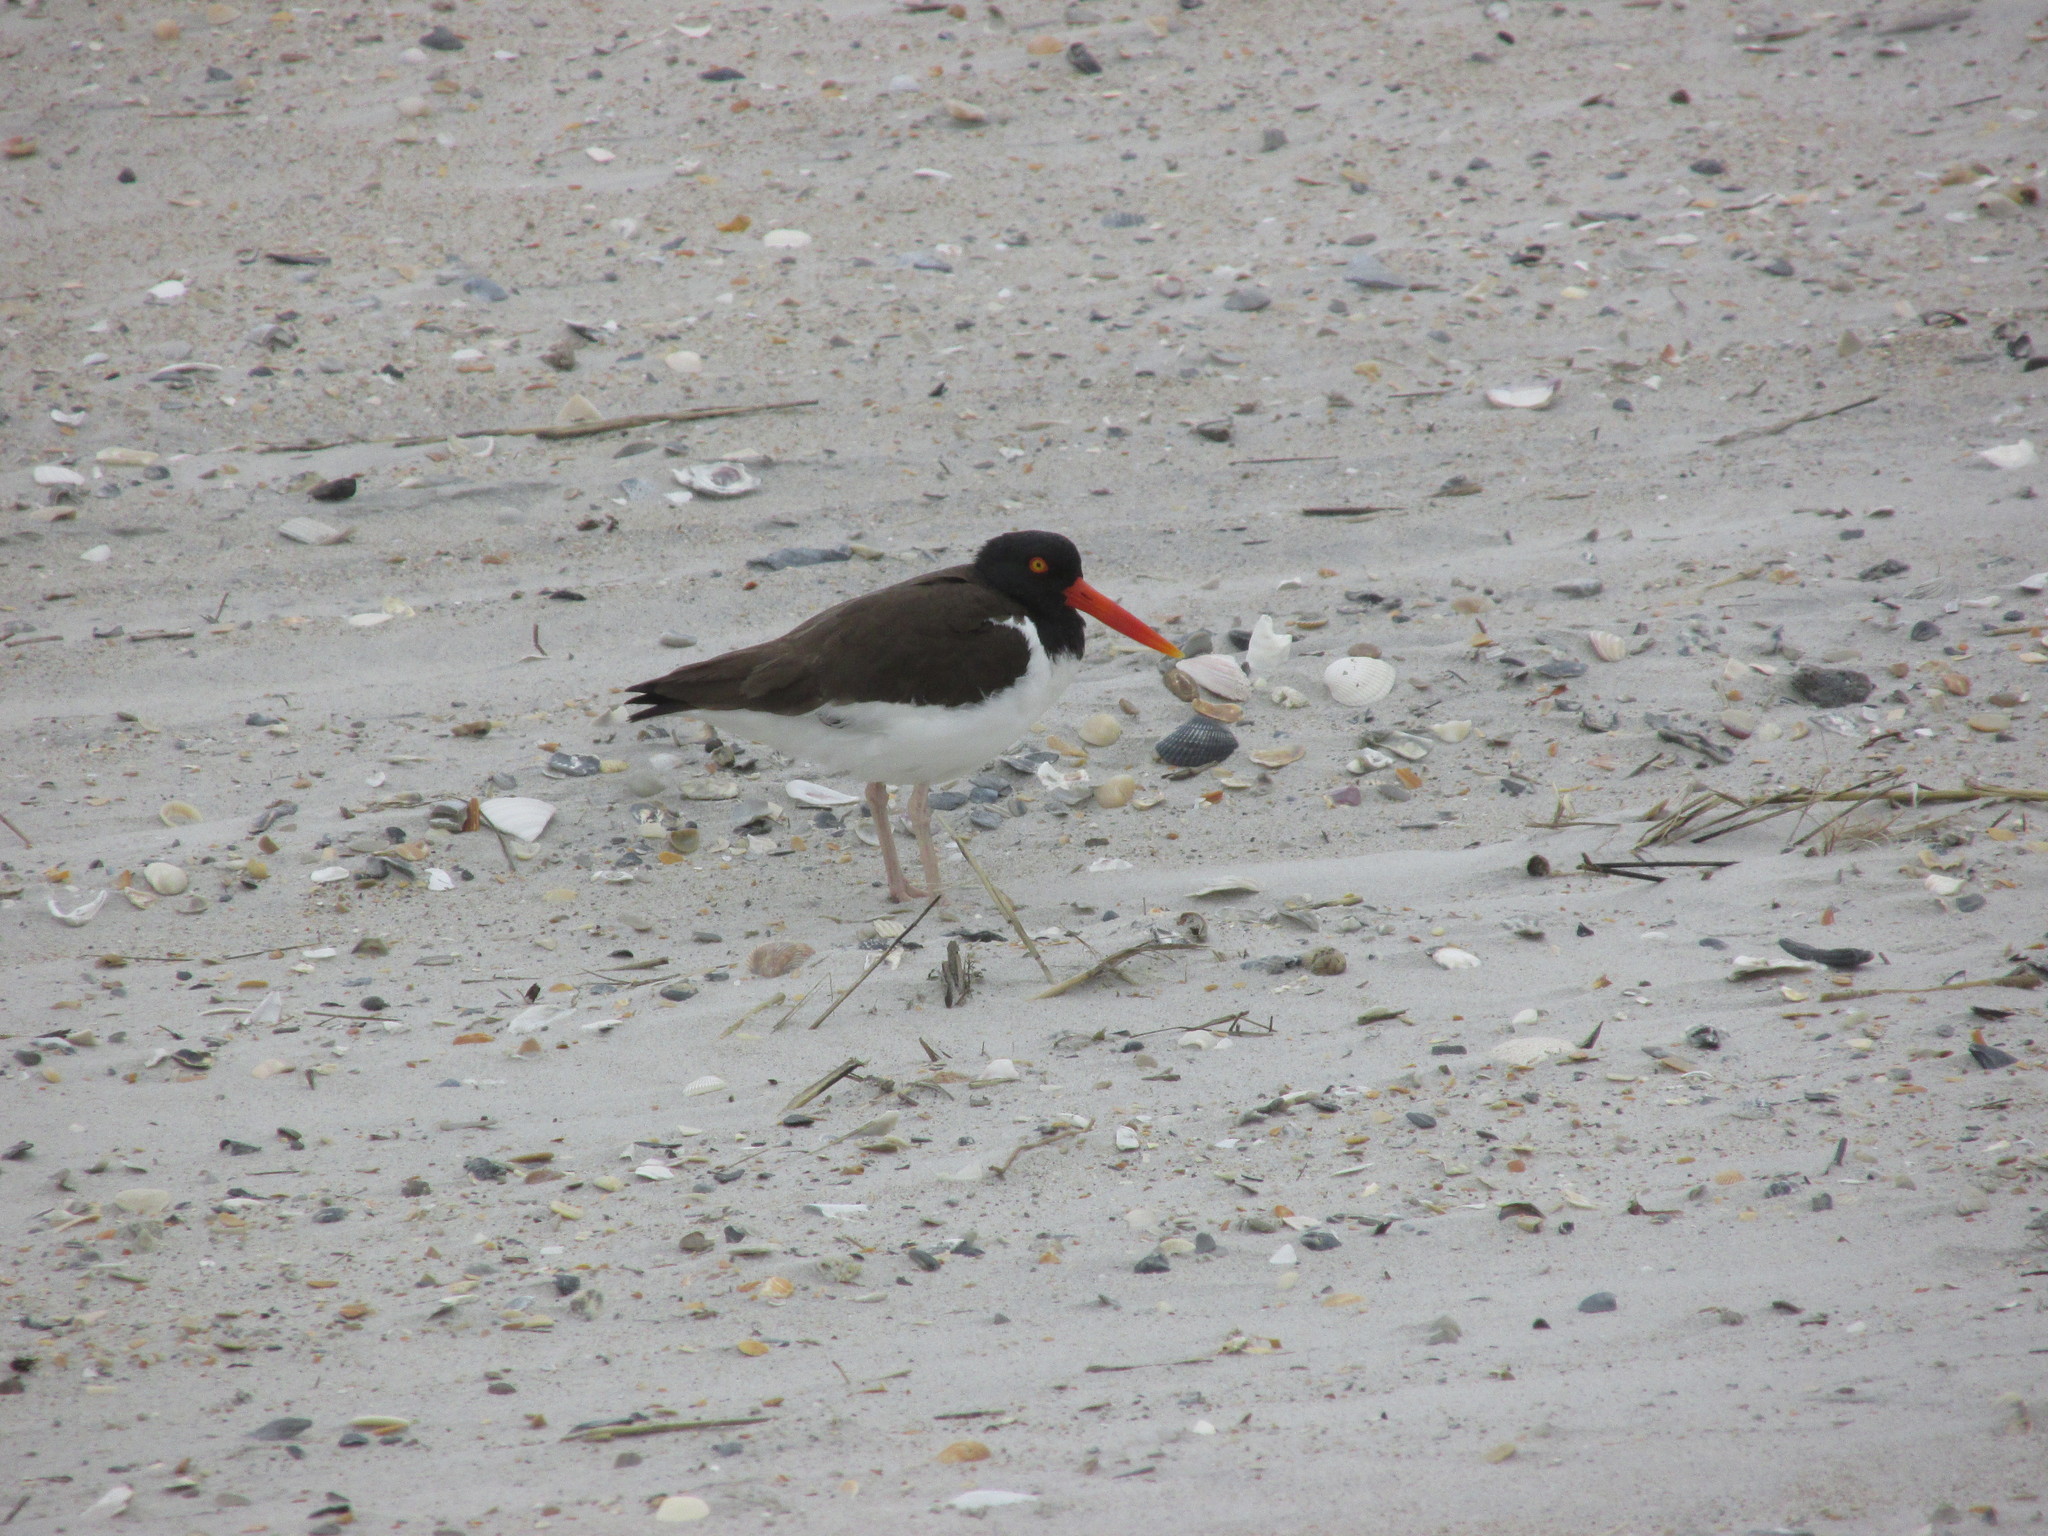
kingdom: Animalia
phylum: Chordata
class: Aves
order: Charadriiformes
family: Haematopodidae
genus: Haematopus
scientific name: Haematopus palliatus
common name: American oystercatcher
